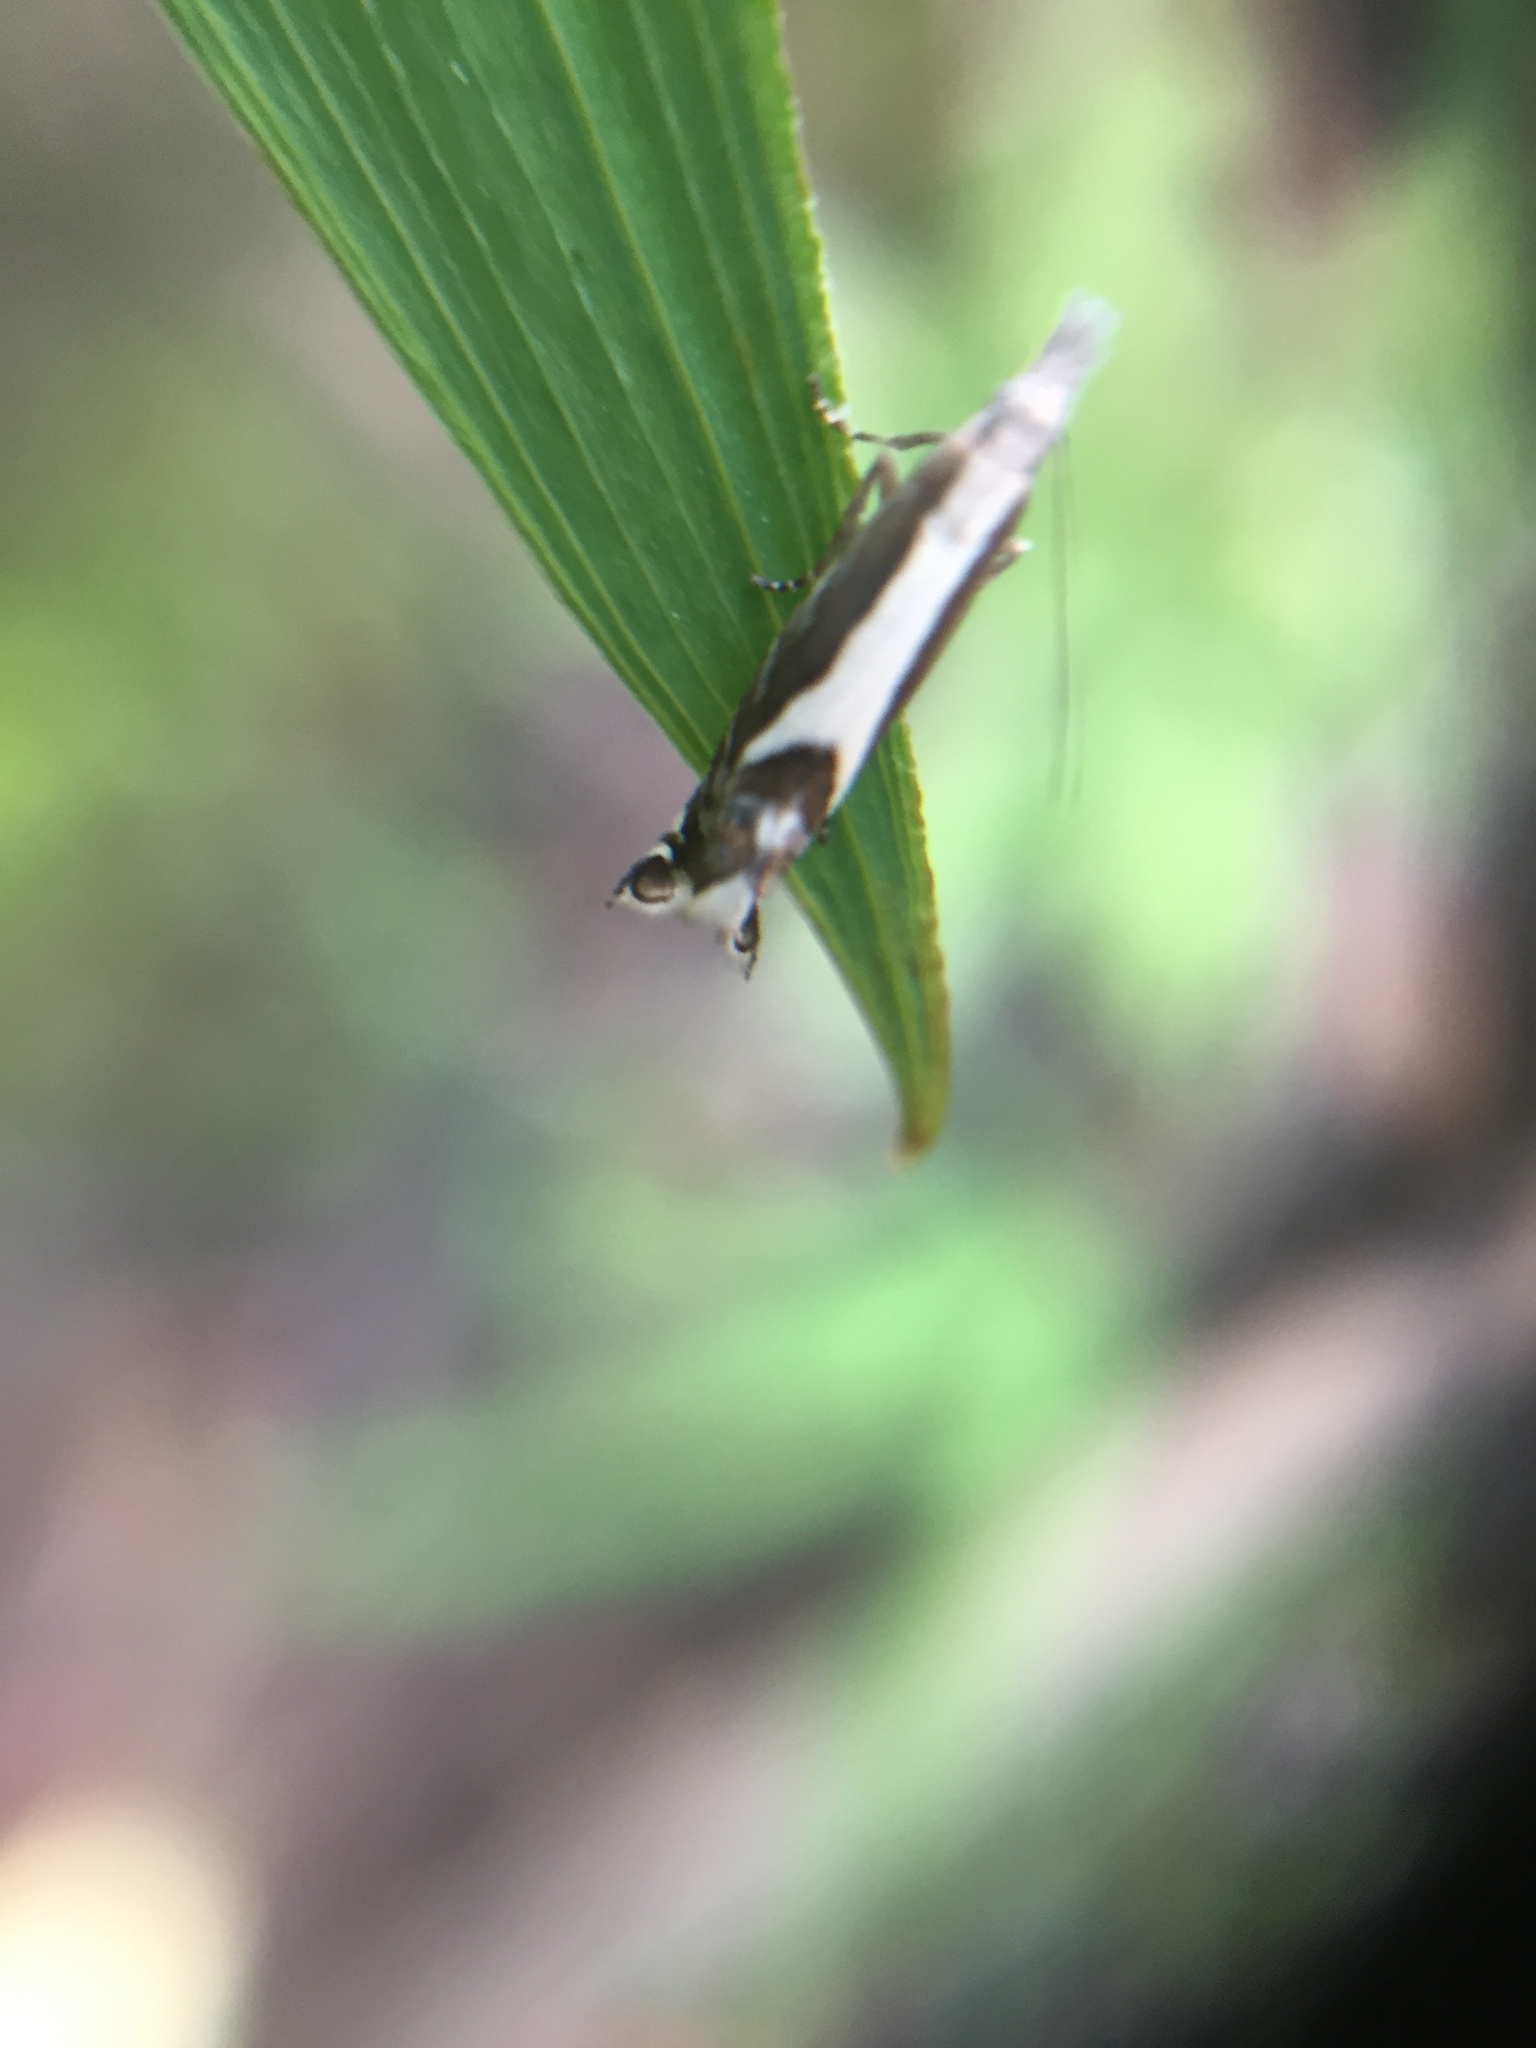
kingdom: Animalia
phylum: Arthropoda
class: Insecta
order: Lepidoptera
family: Glyphipterigidae
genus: Glyphipterix
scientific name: Glyphipterix oxymachaera
